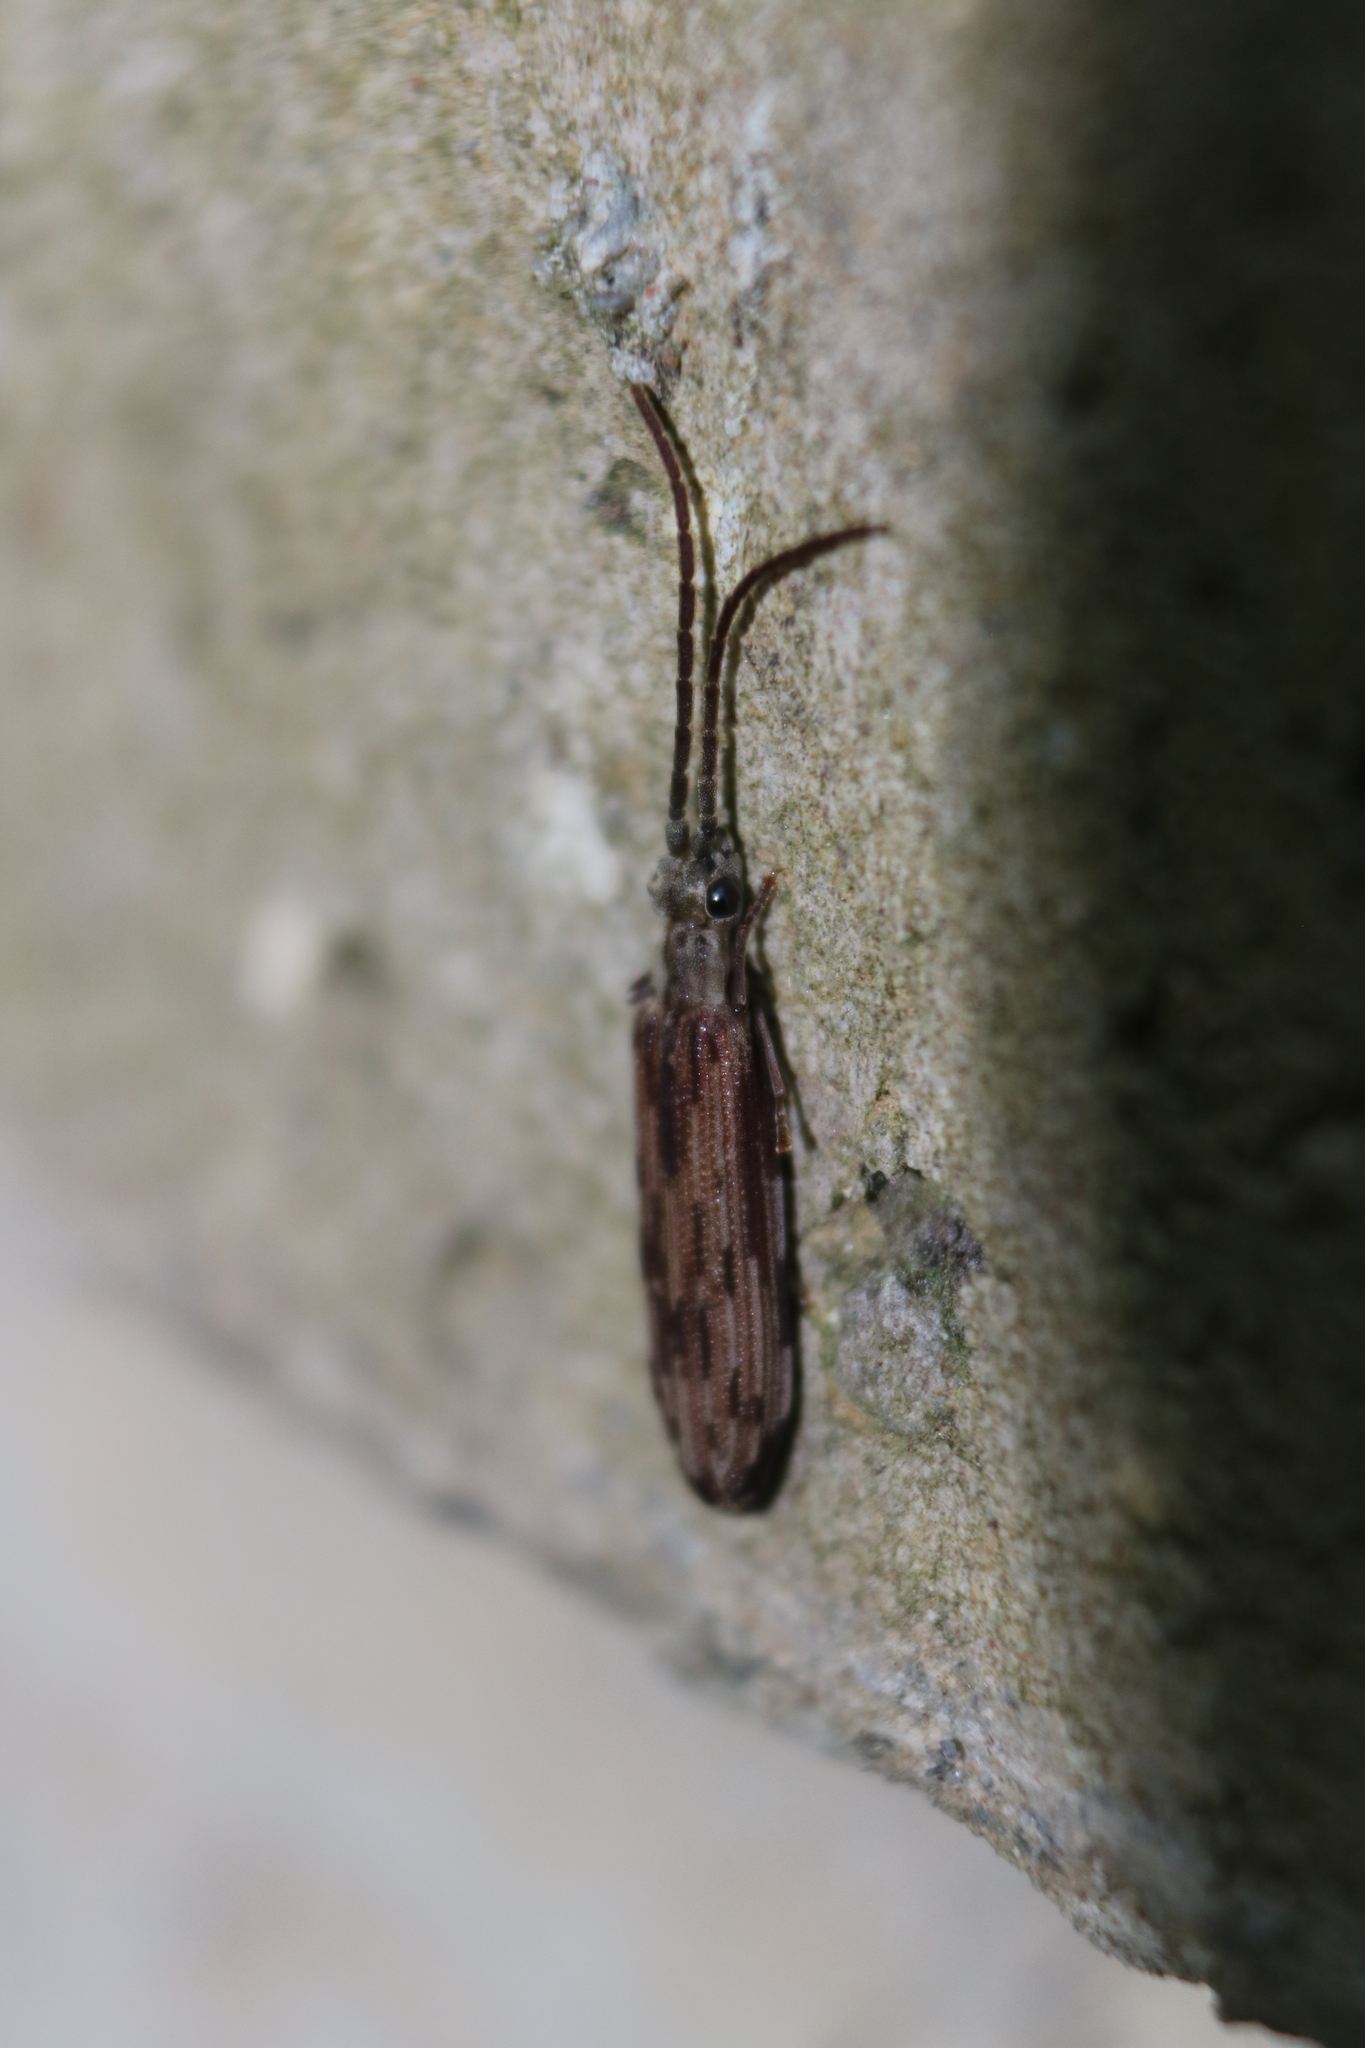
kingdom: Animalia
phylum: Arthropoda
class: Insecta
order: Coleoptera
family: Cupedidae
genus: Tenomerga
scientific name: Tenomerga cinerea
